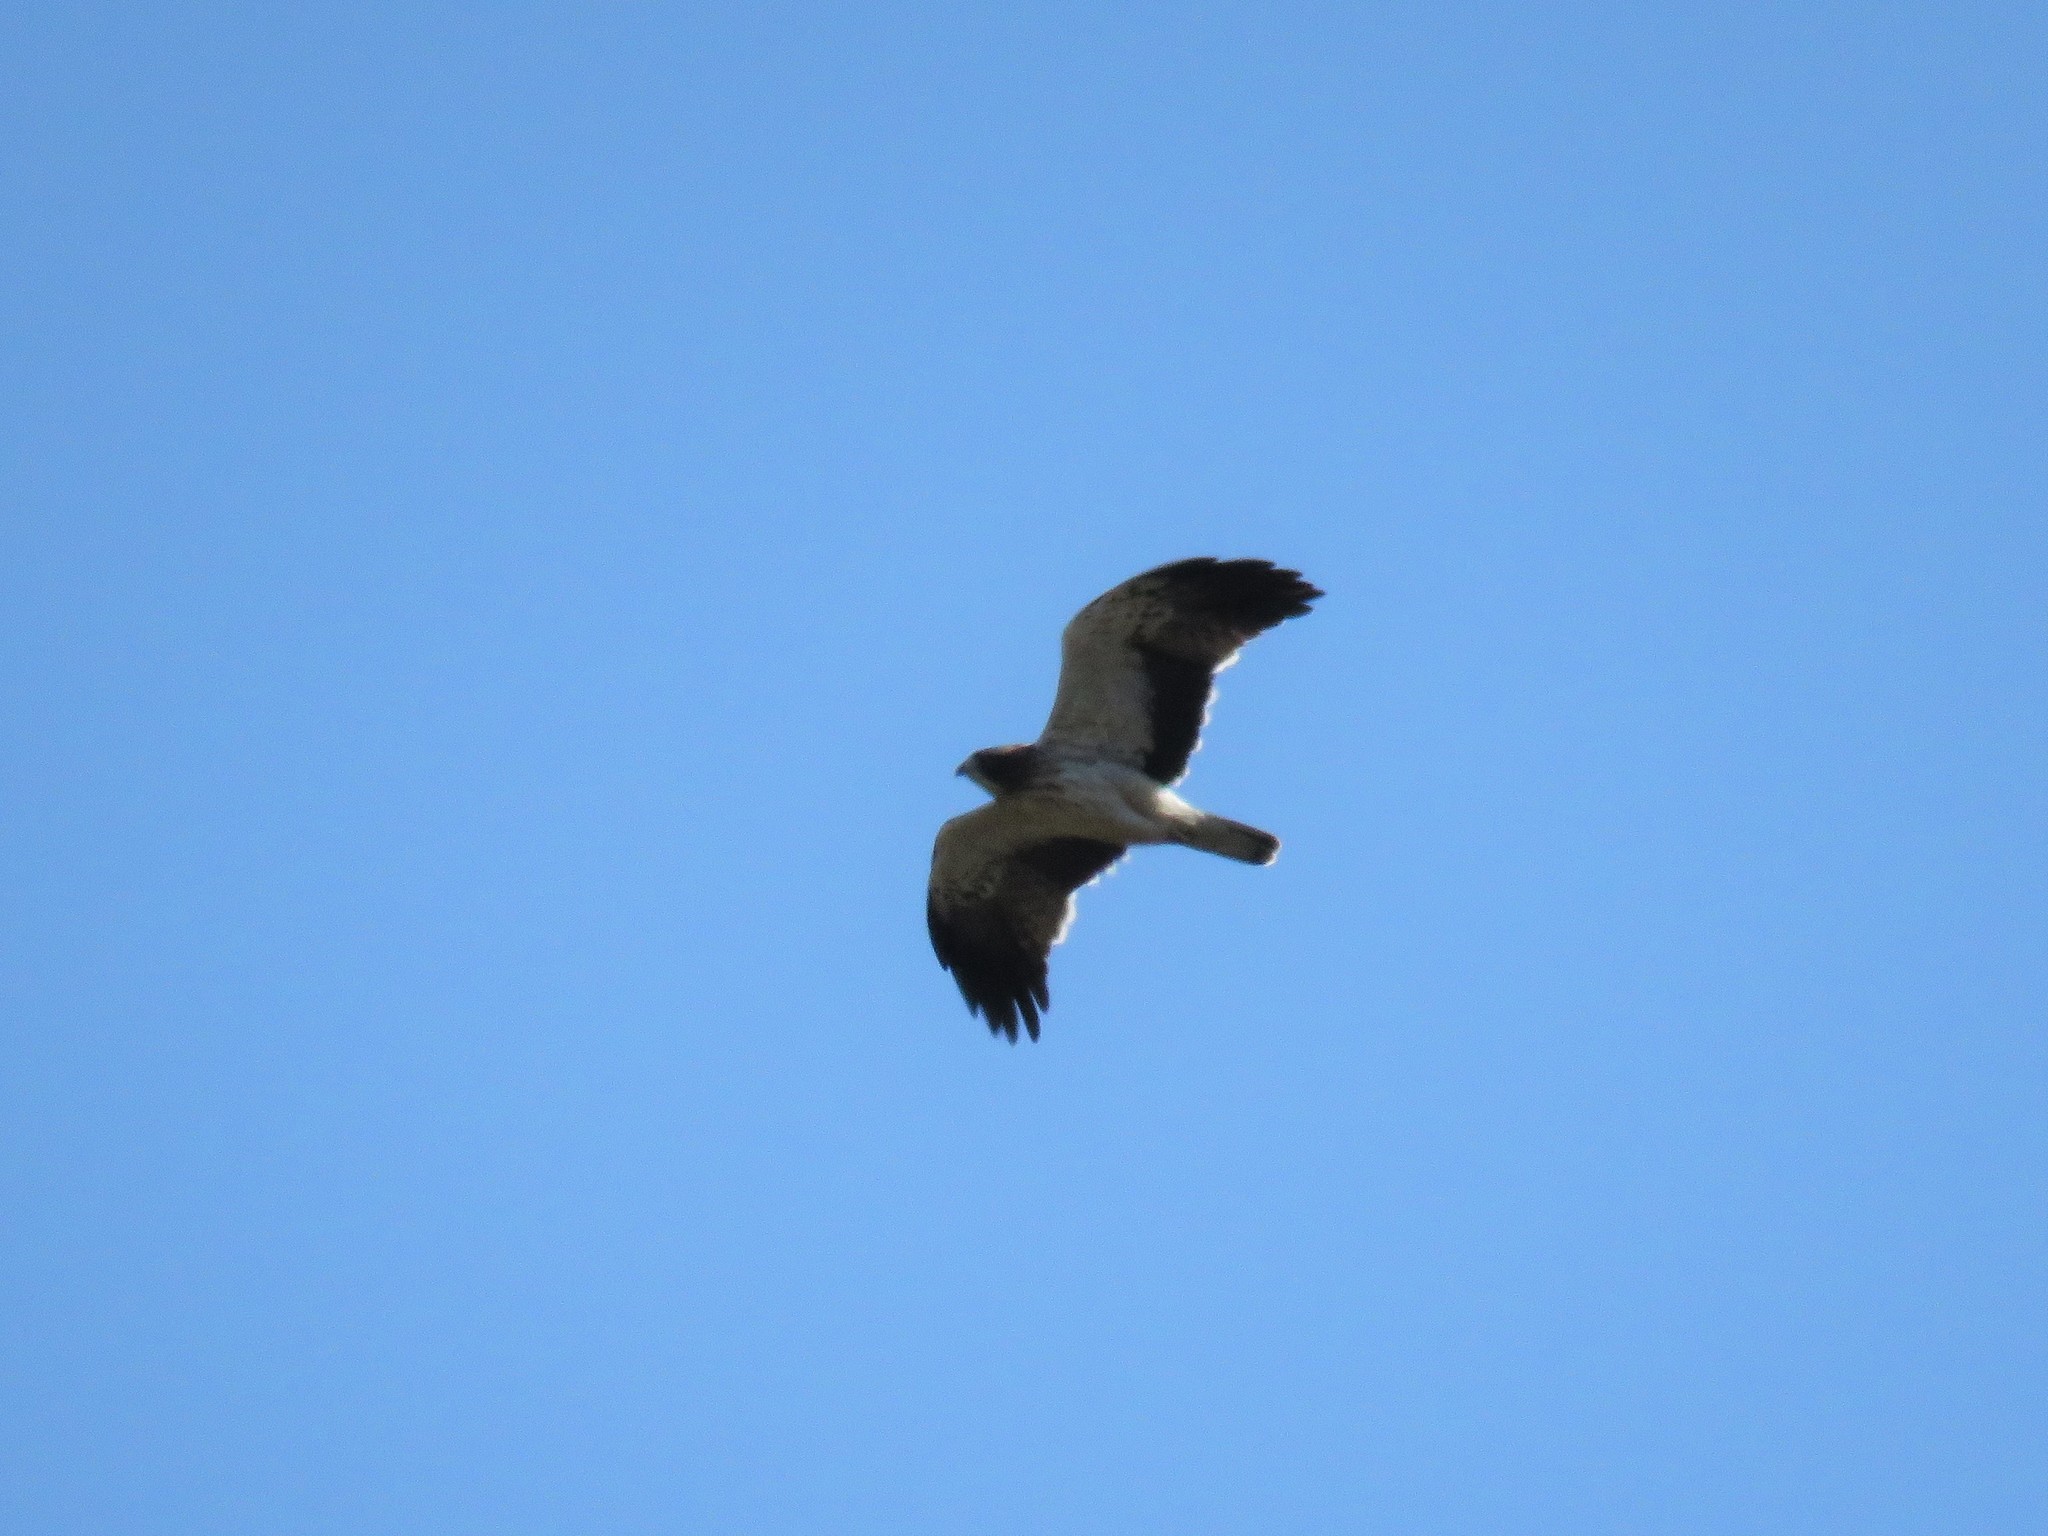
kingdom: Animalia
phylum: Chordata
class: Aves
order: Accipitriformes
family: Accipitridae
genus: Hieraaetus
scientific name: Hieraaetus pennatus
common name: Booted eagle
